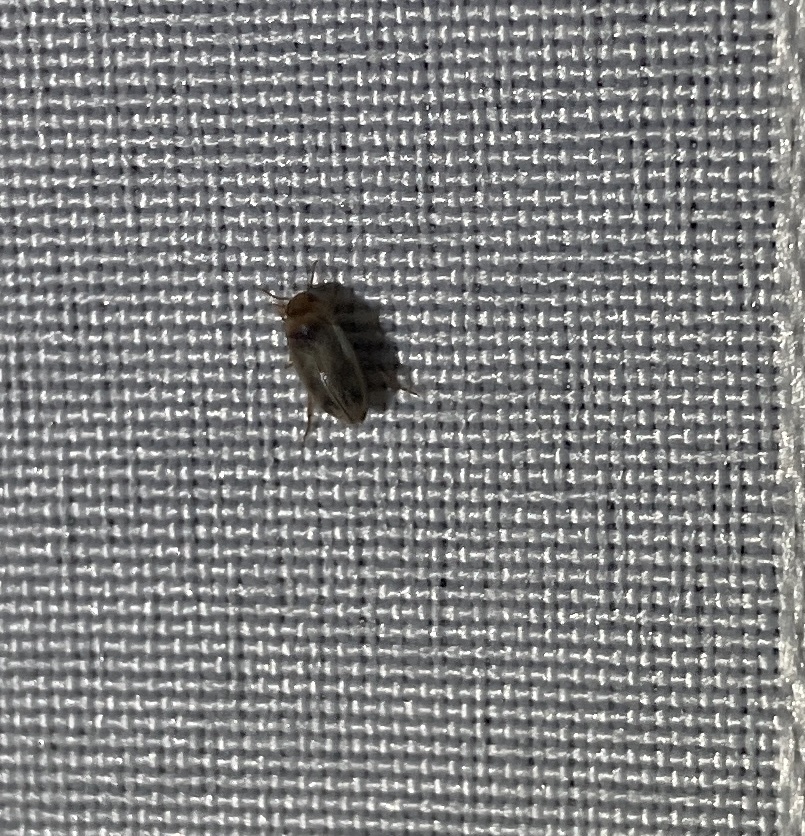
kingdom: Animalia
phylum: Arthropoda
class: Insecta
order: Coleoptera
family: Dytiscidae
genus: Allodessus
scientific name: Allodessus bistrigatus
